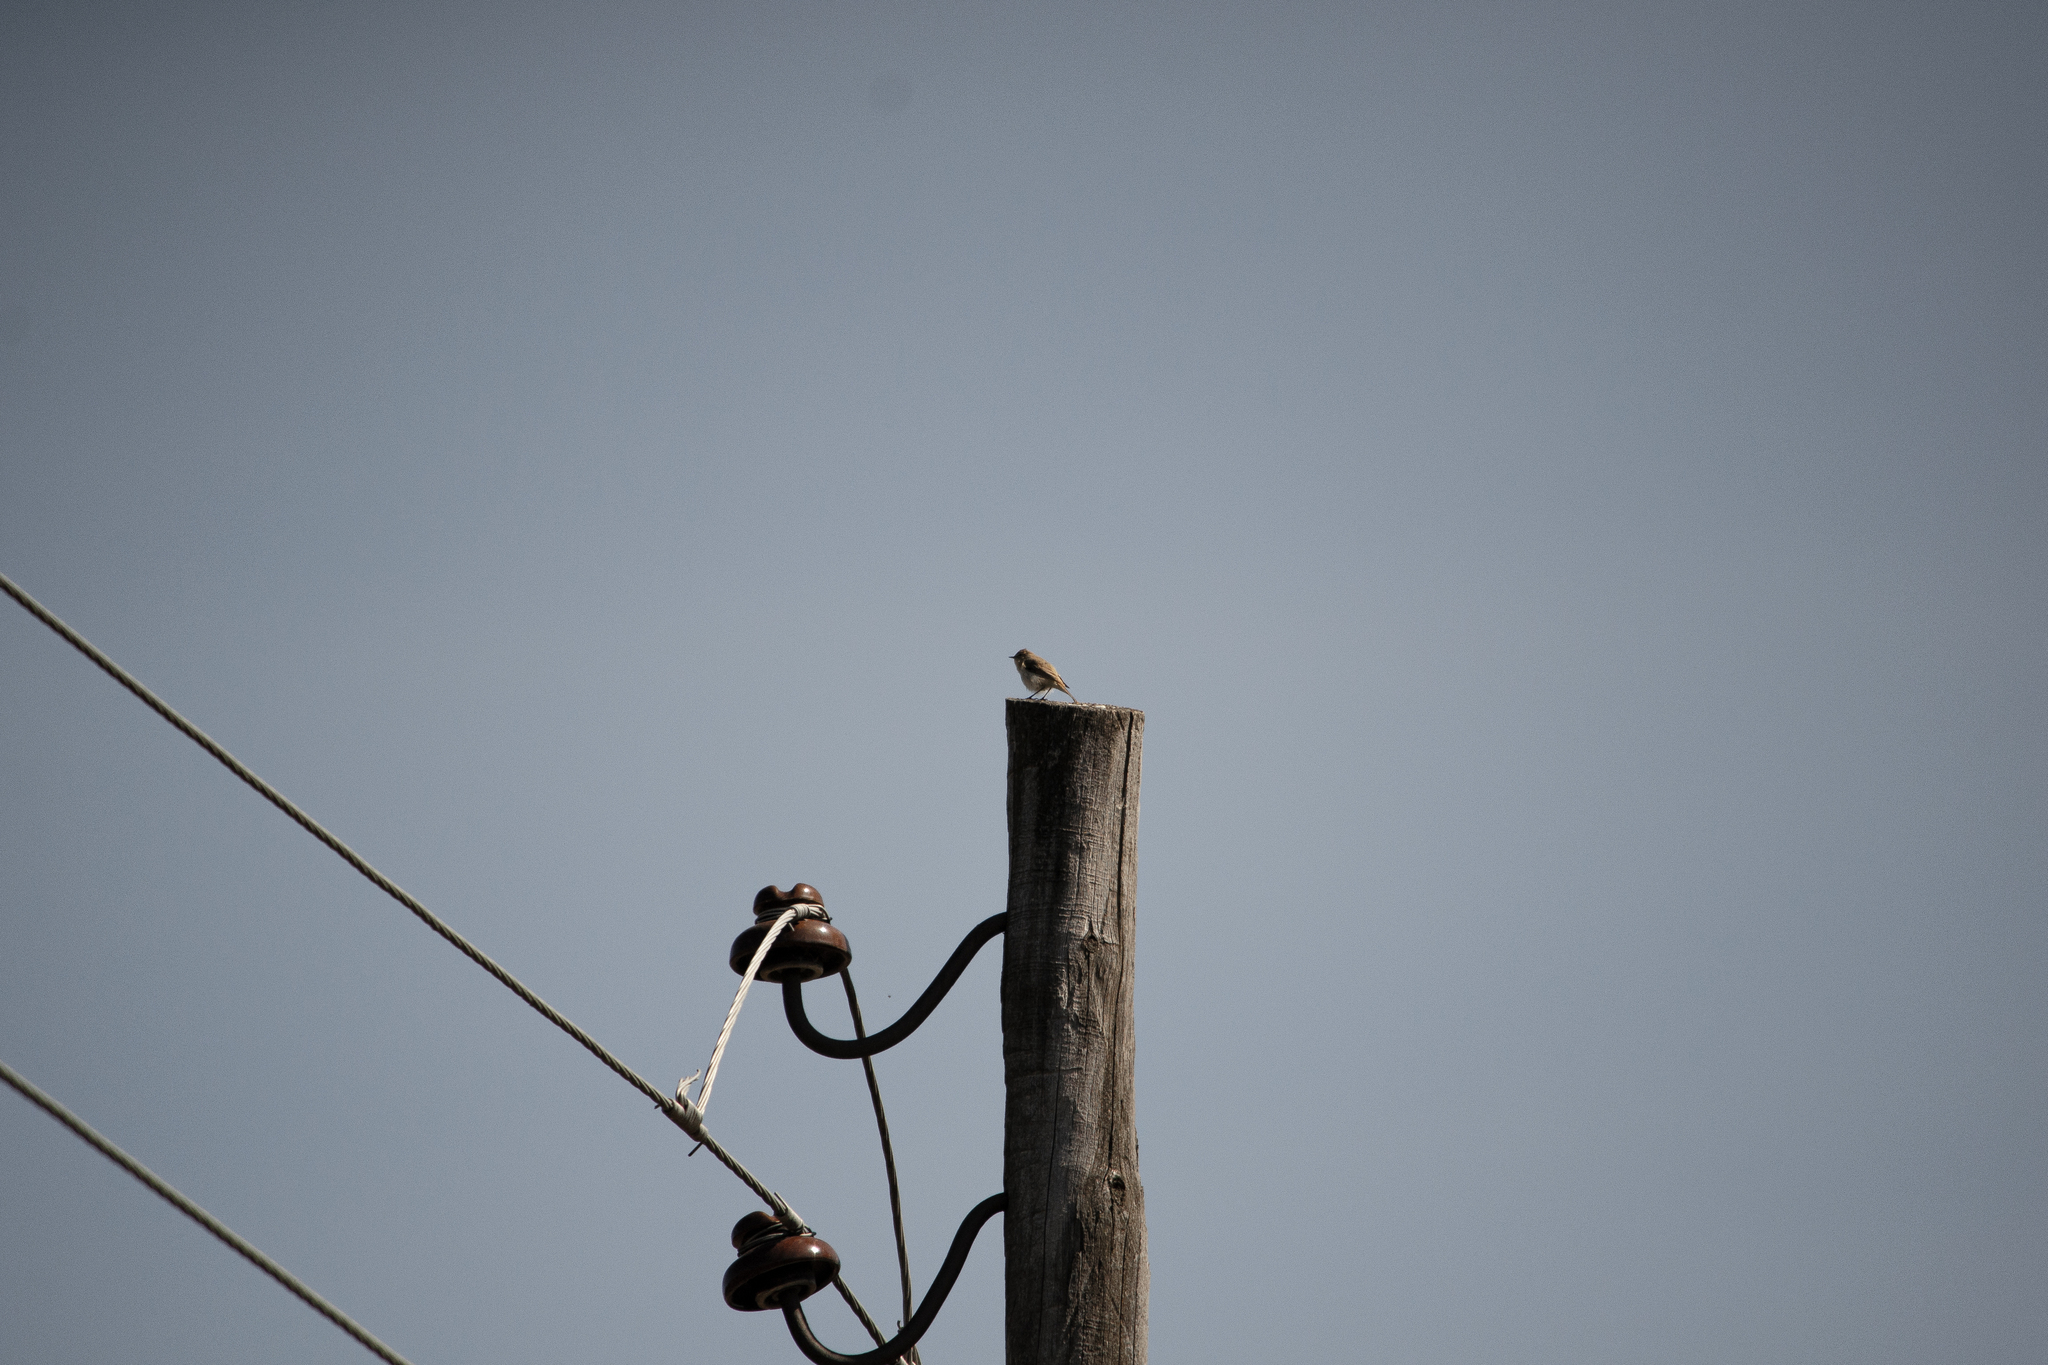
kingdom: Animalia
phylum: Chordata
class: Aves
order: Passeriformes
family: Phylloscopidae
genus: Phylloscopus
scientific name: Phylloscopus collybita
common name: Common chiffchaff
